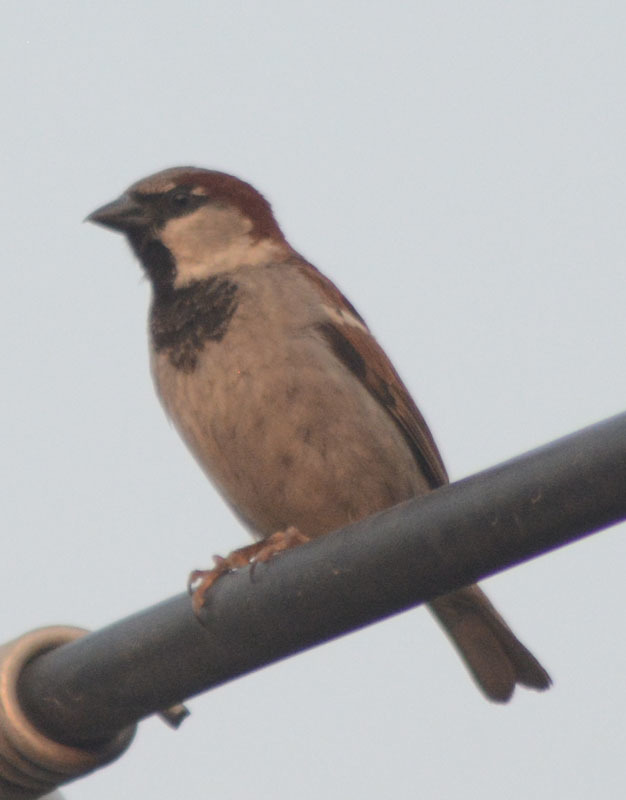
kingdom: Animalia
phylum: Chordata
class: Aves
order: Passeriformes
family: Passeridae
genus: Passer
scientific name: Passer domesticus
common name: House sparrow
